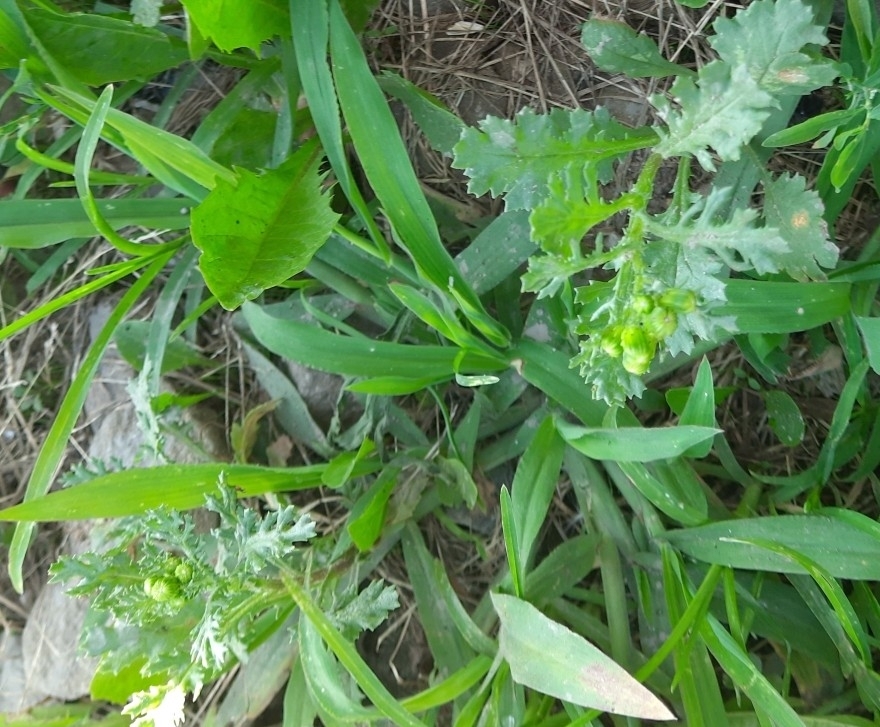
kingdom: Plantae
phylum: Tracheophyta
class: Magnoliopsida
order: Asterales
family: Asteraceae
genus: Senecio
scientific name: Senecio vulgaris
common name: Old-man-in-the-spring
